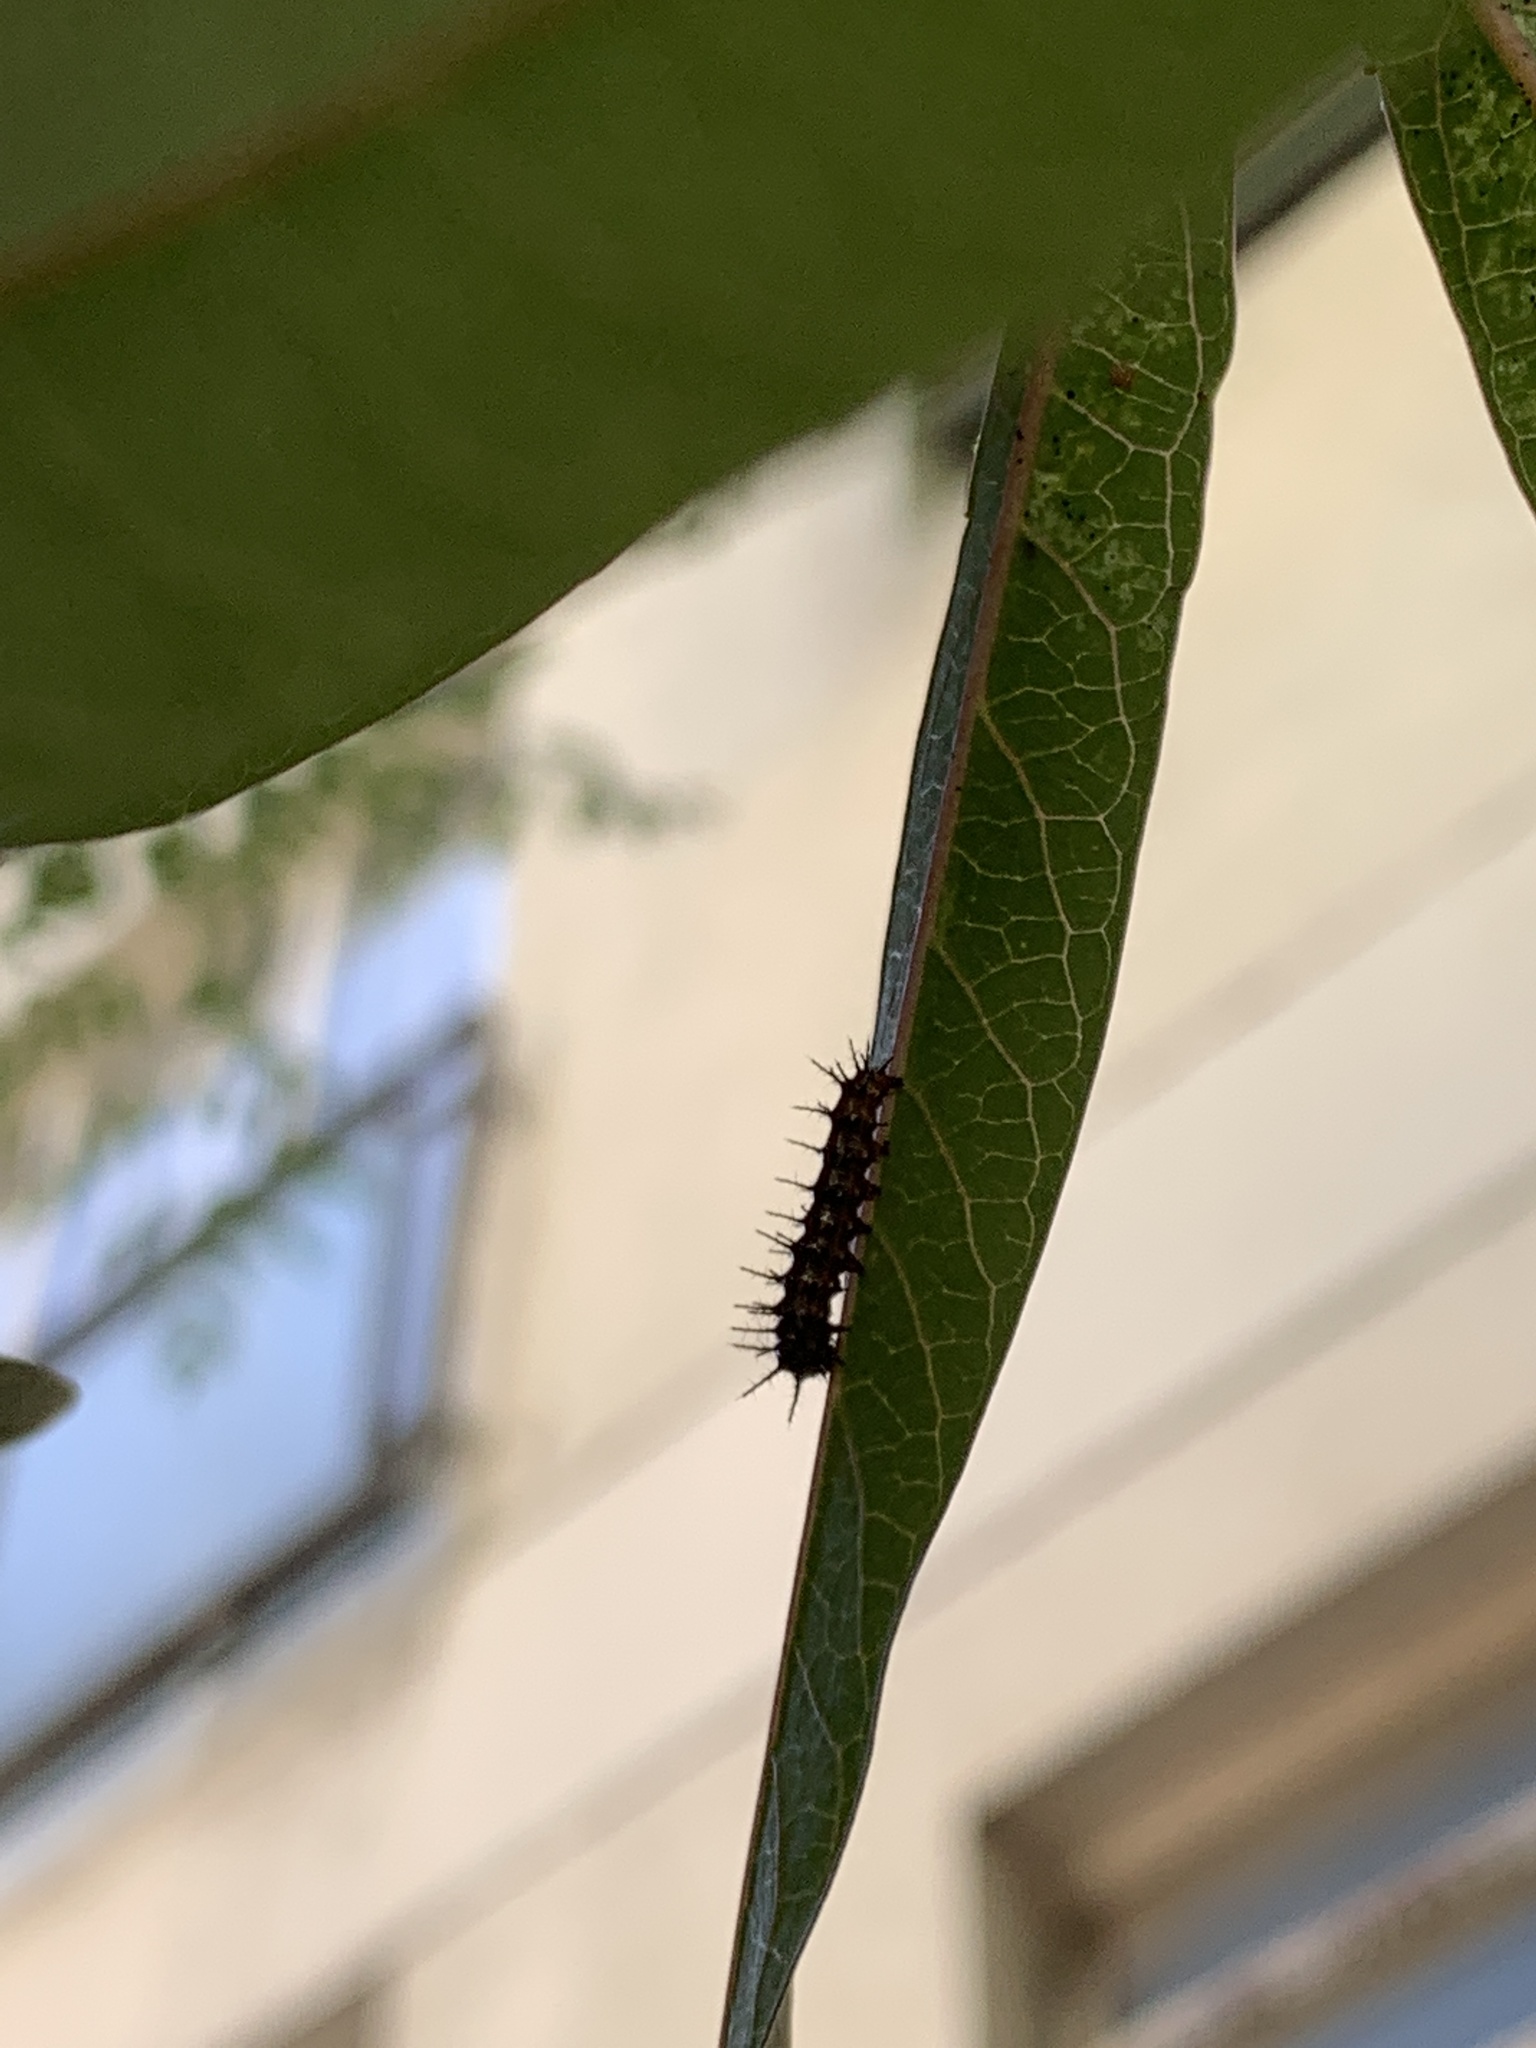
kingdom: Animalia
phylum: Arthropoda
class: Insecta
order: Lepidoptera
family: Nymphalidae
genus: Dione
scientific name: Dione vanillae
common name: Gulf fritillary
